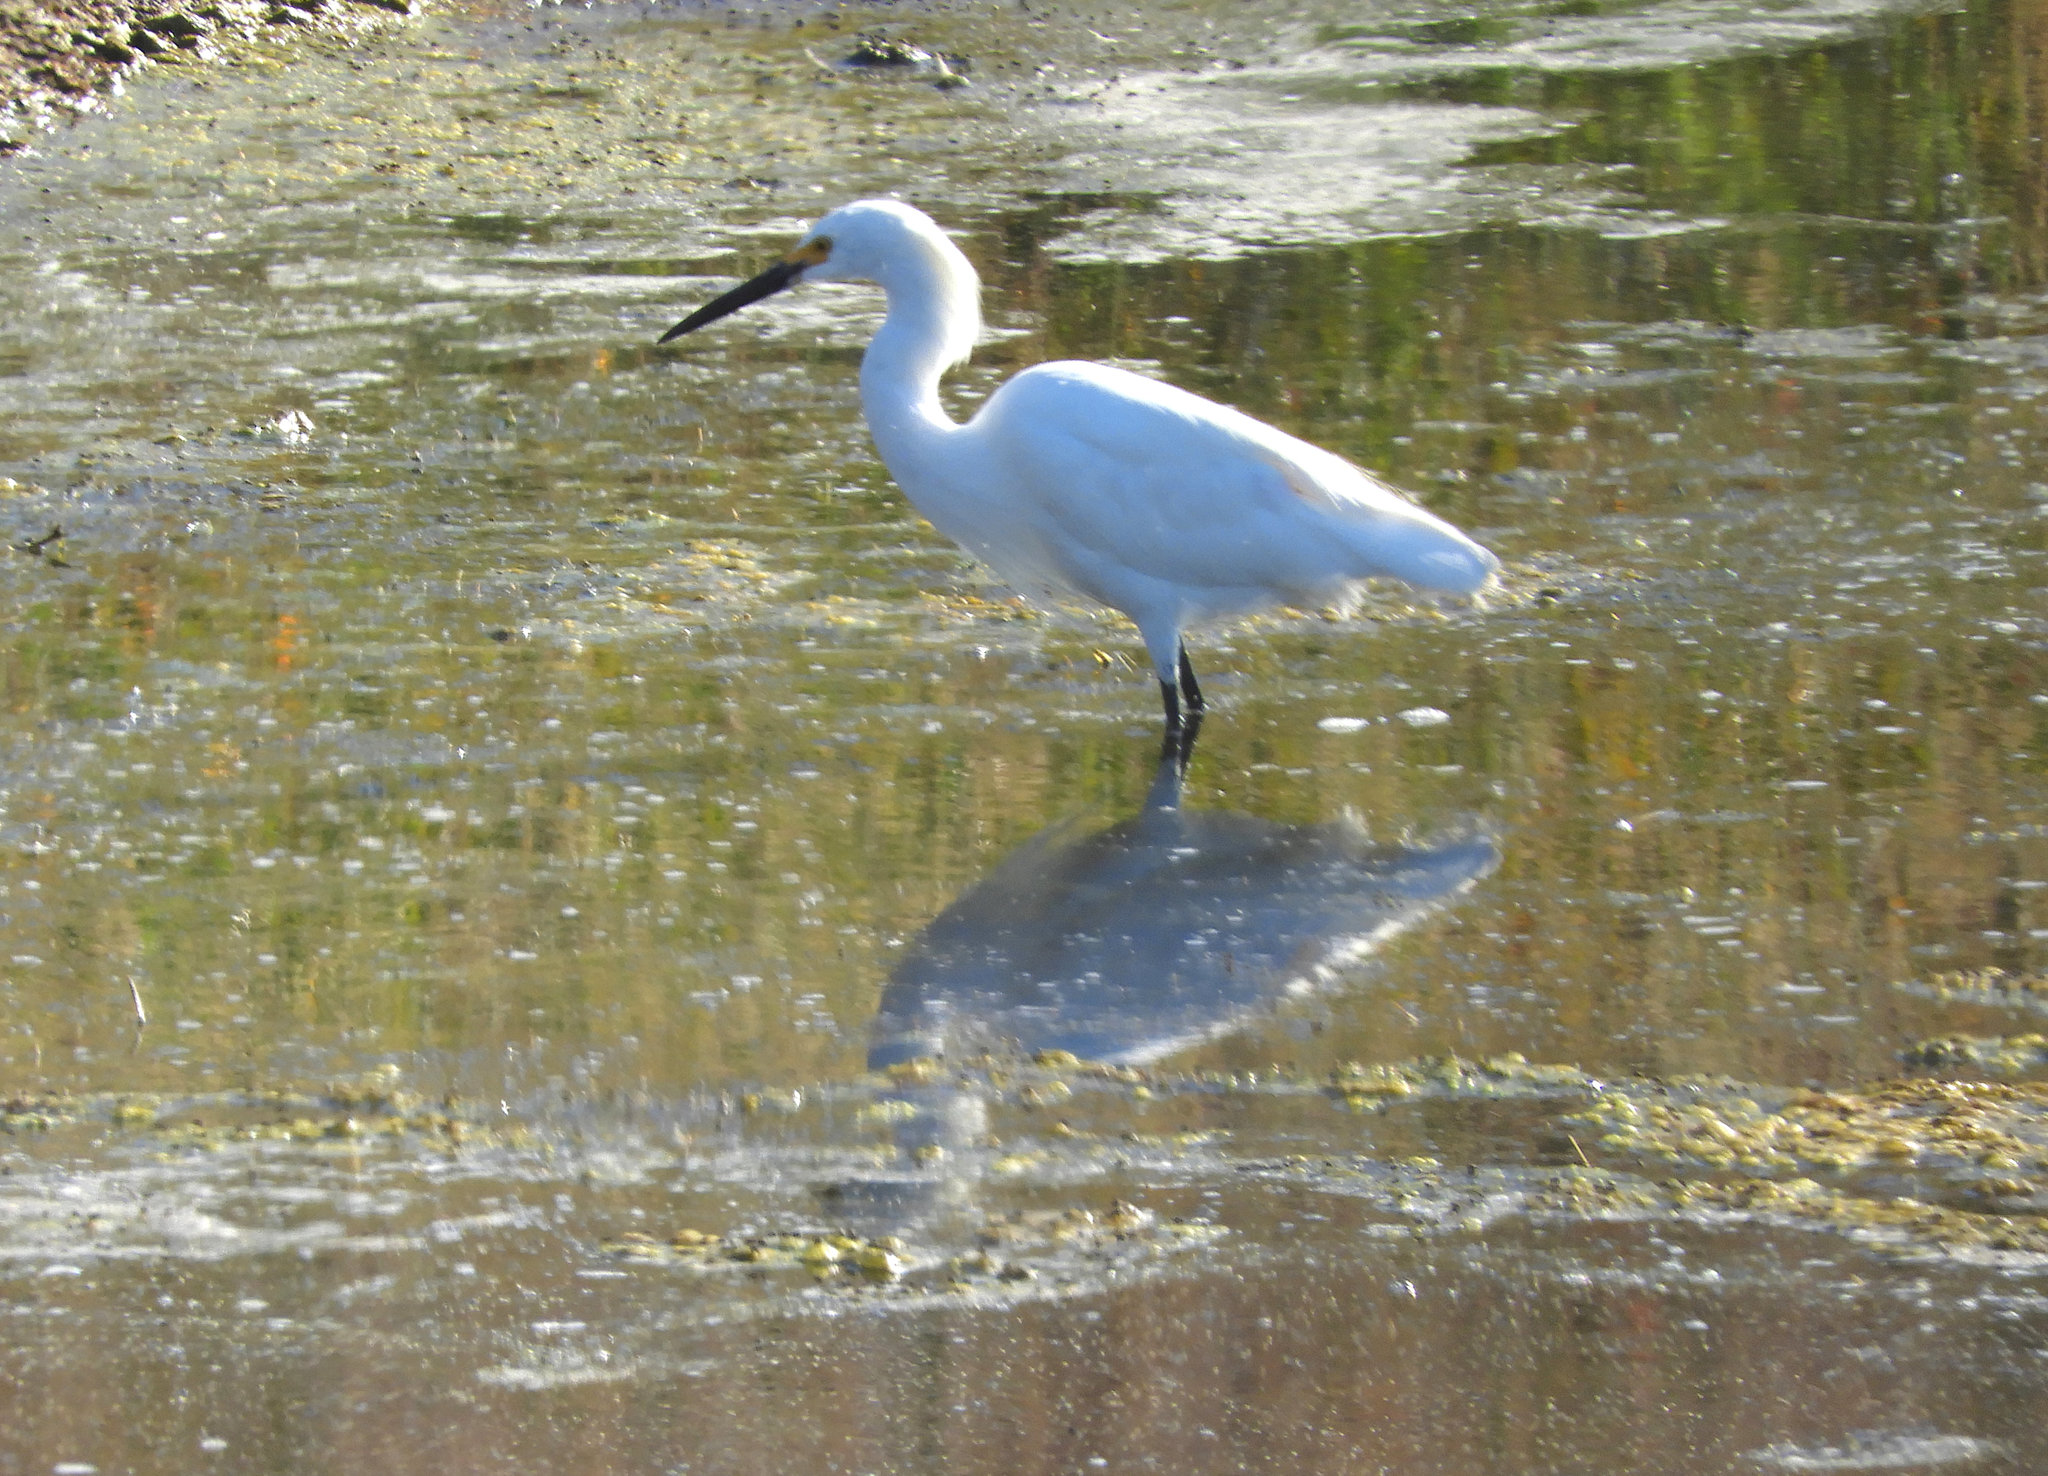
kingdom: Animalia
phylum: Chordata
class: Aves
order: Pelecaniformes
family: Ardeidae
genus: Egretta
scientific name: Egretta thula
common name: Snowy egret
